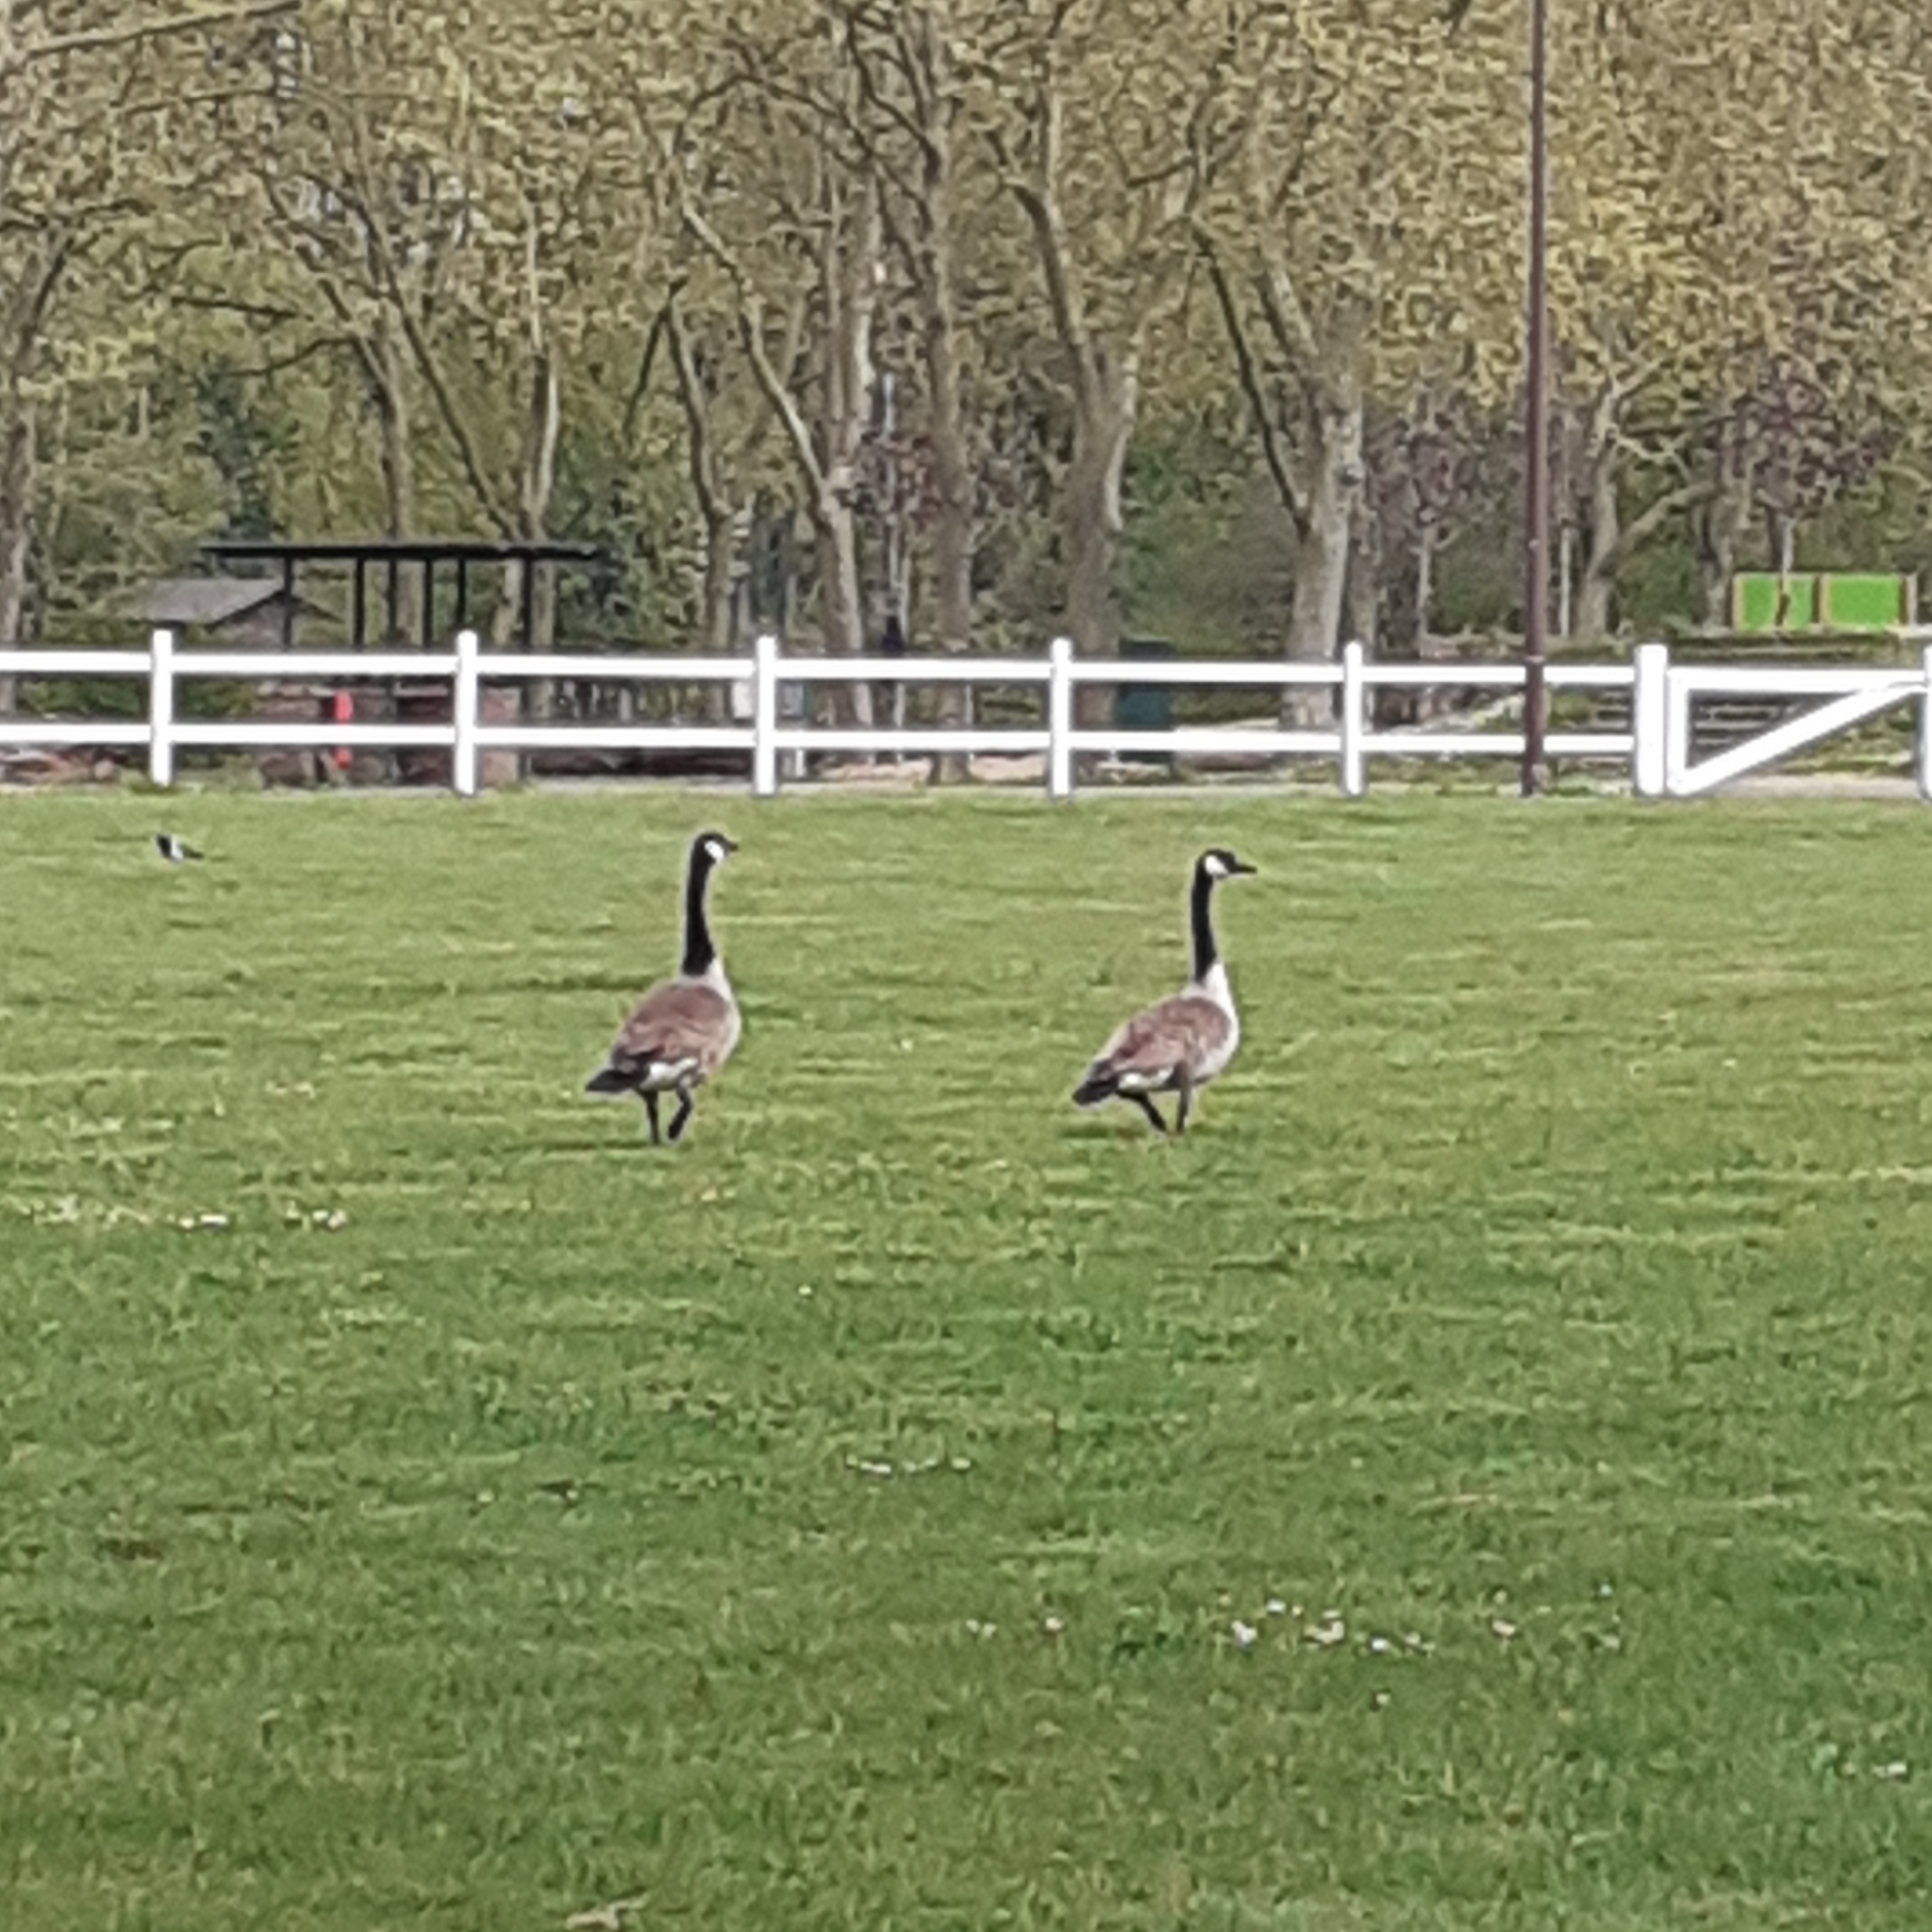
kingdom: Animalia
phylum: Chordata
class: Aves
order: Anseriformes
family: Anatidae
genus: Branta
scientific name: Branta canadensis
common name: Canada goose
